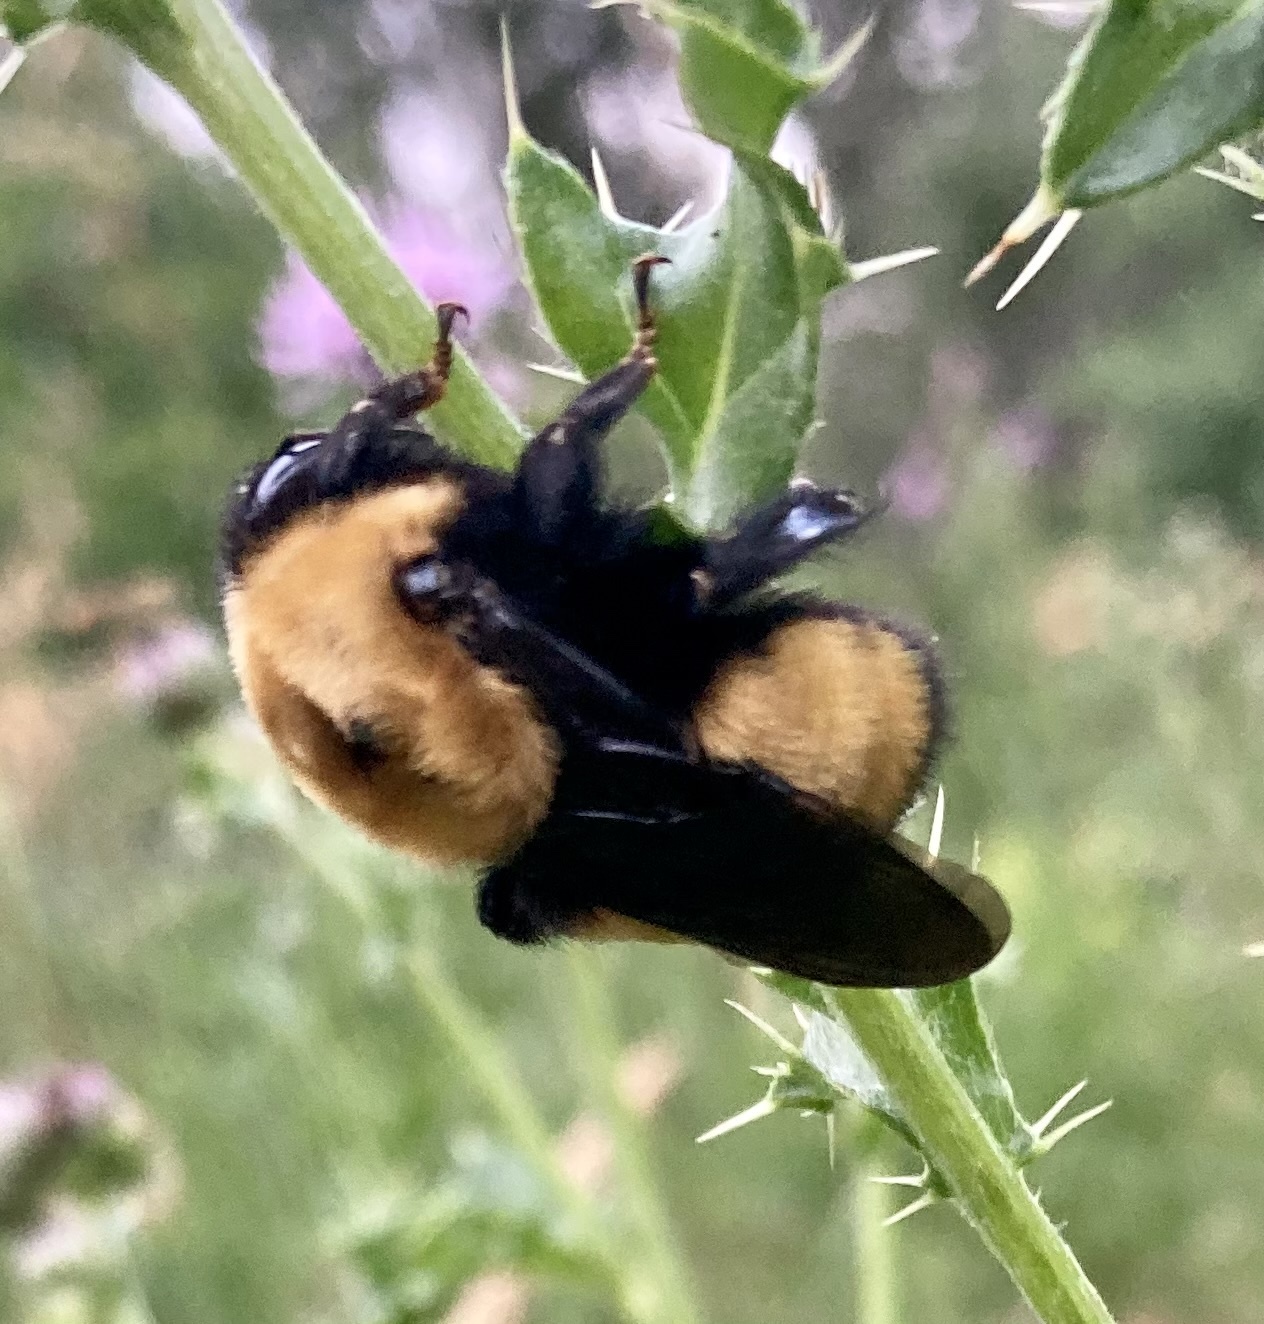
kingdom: Animalia
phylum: Arthropoda
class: Insecta
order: Hymenoptera
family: Apidae
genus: Bombus
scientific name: Bombus nevadensis
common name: Nevada bumble bee
